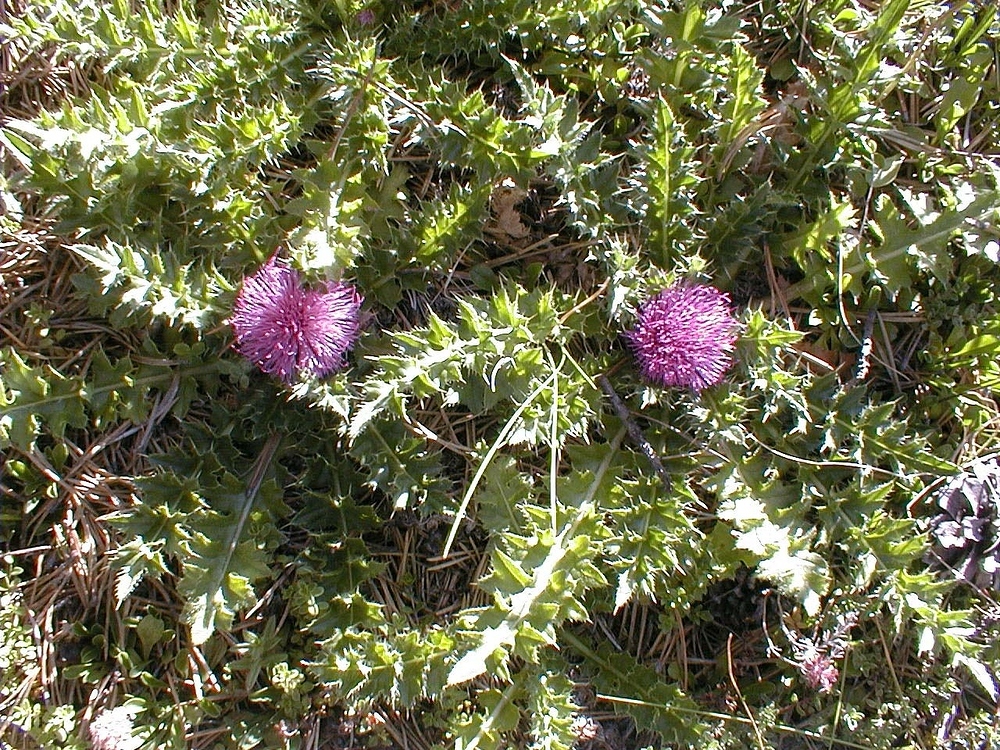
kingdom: Plantae
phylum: Tracheophyta
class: Magnoliopsida
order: Asterales
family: Asteraceae
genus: Cirsium
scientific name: Cirsium acaulon
